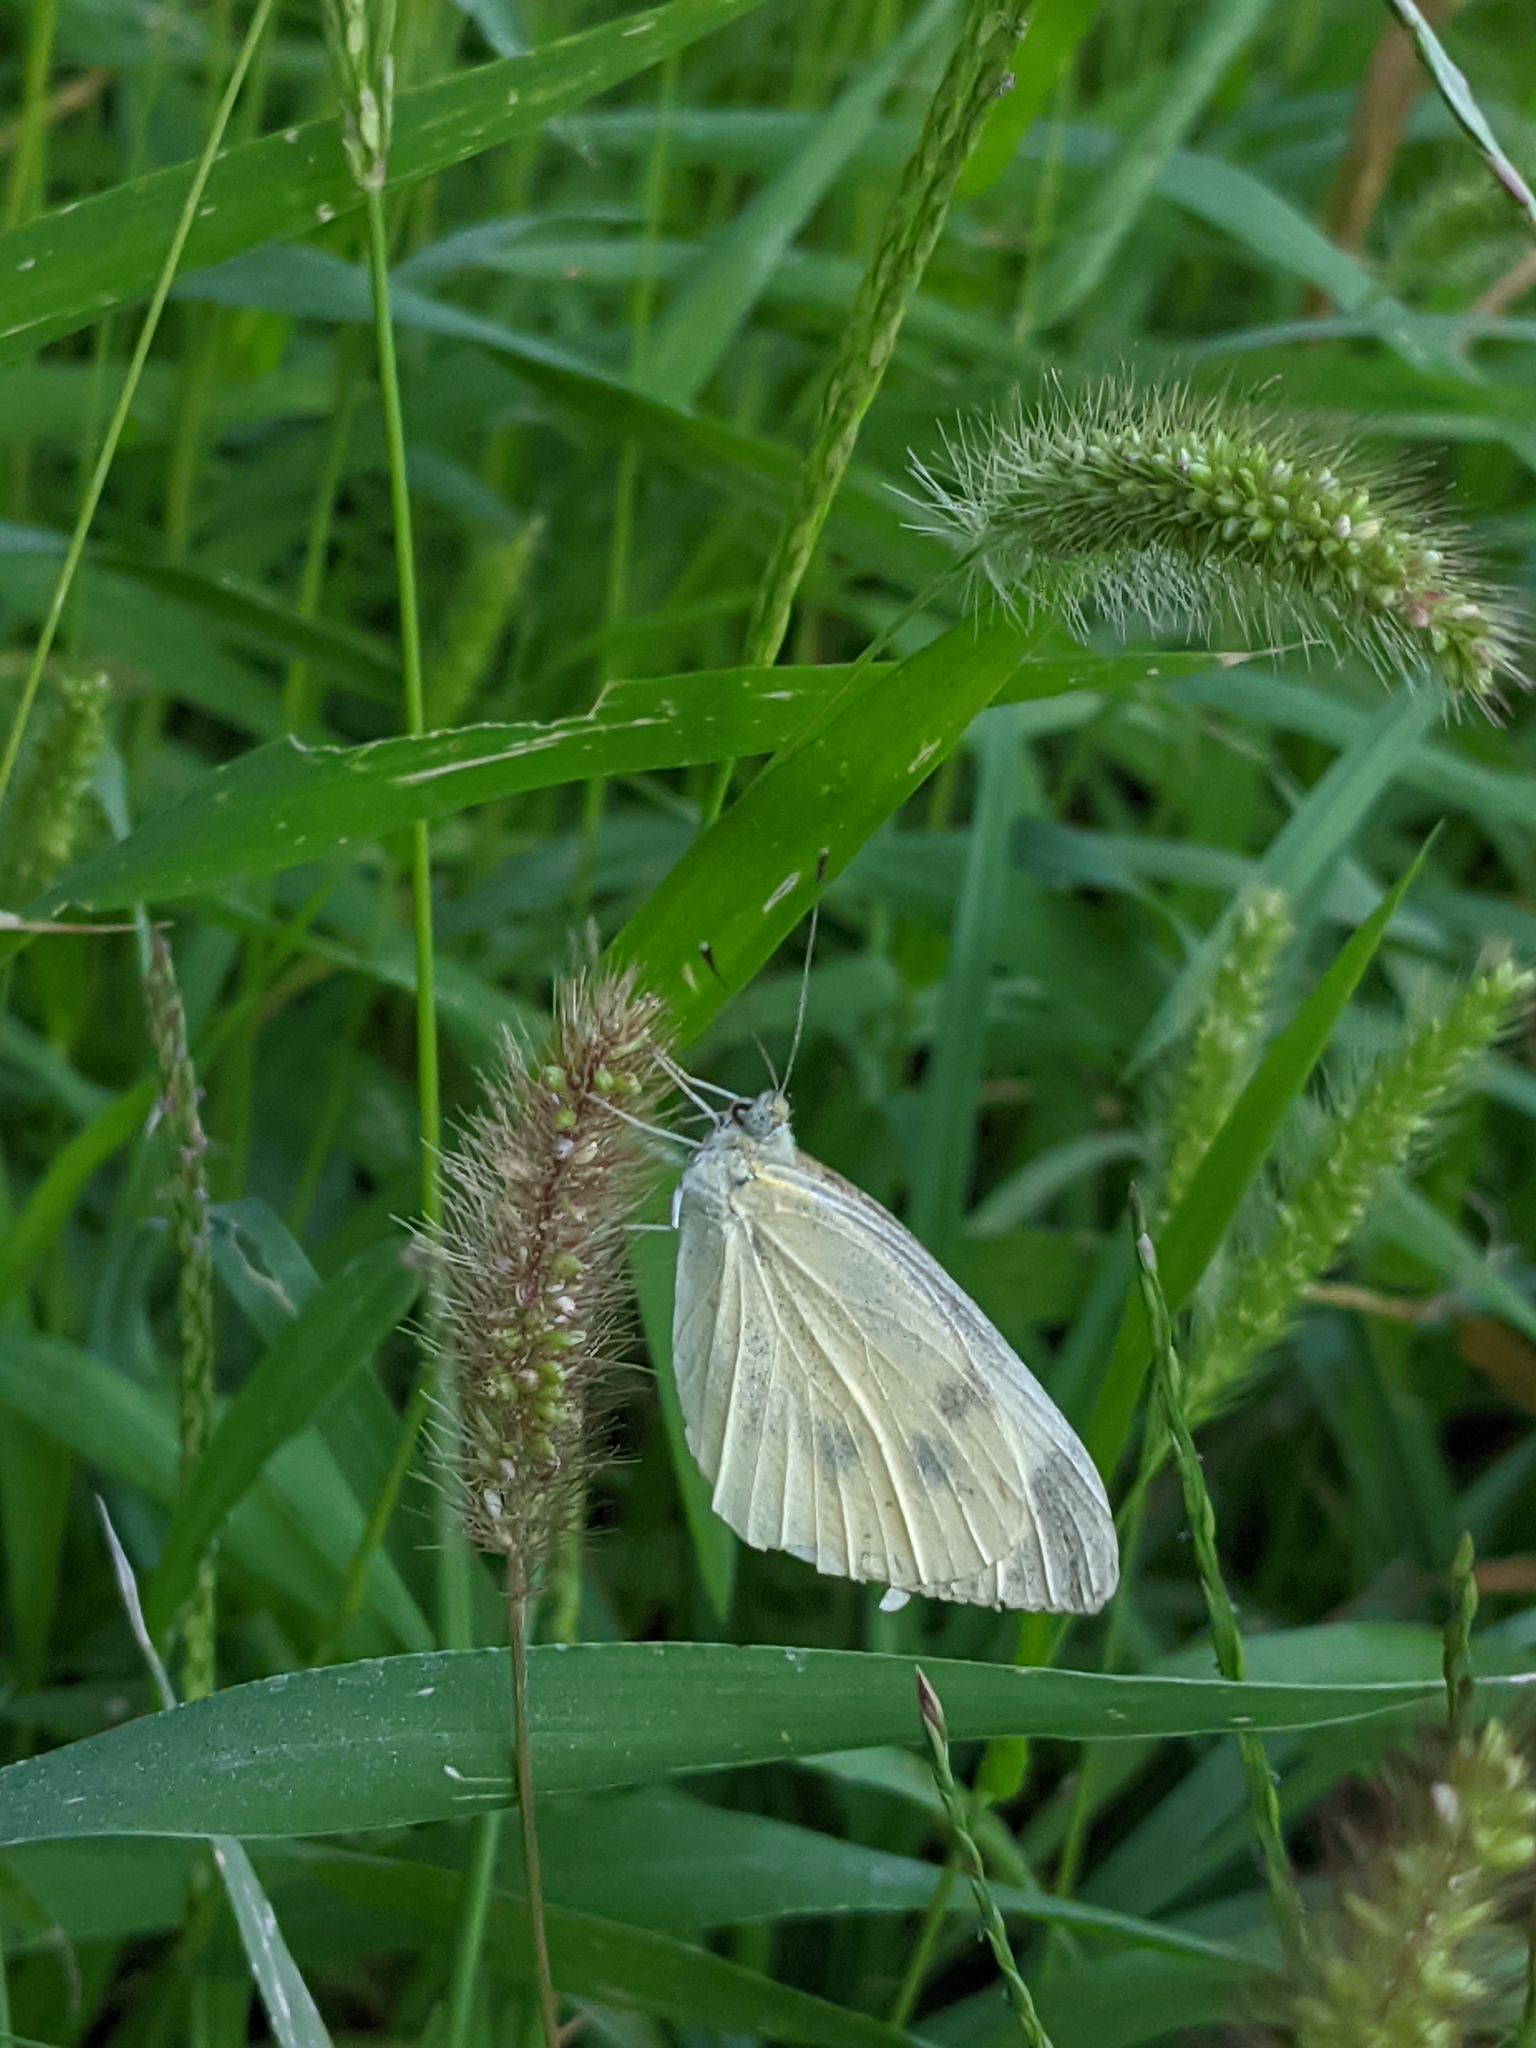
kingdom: Animalia
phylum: Arthropoda
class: Insecta
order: Lepidoptera
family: Pieridae
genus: Pieris
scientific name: Pieris rapae
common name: Small white
